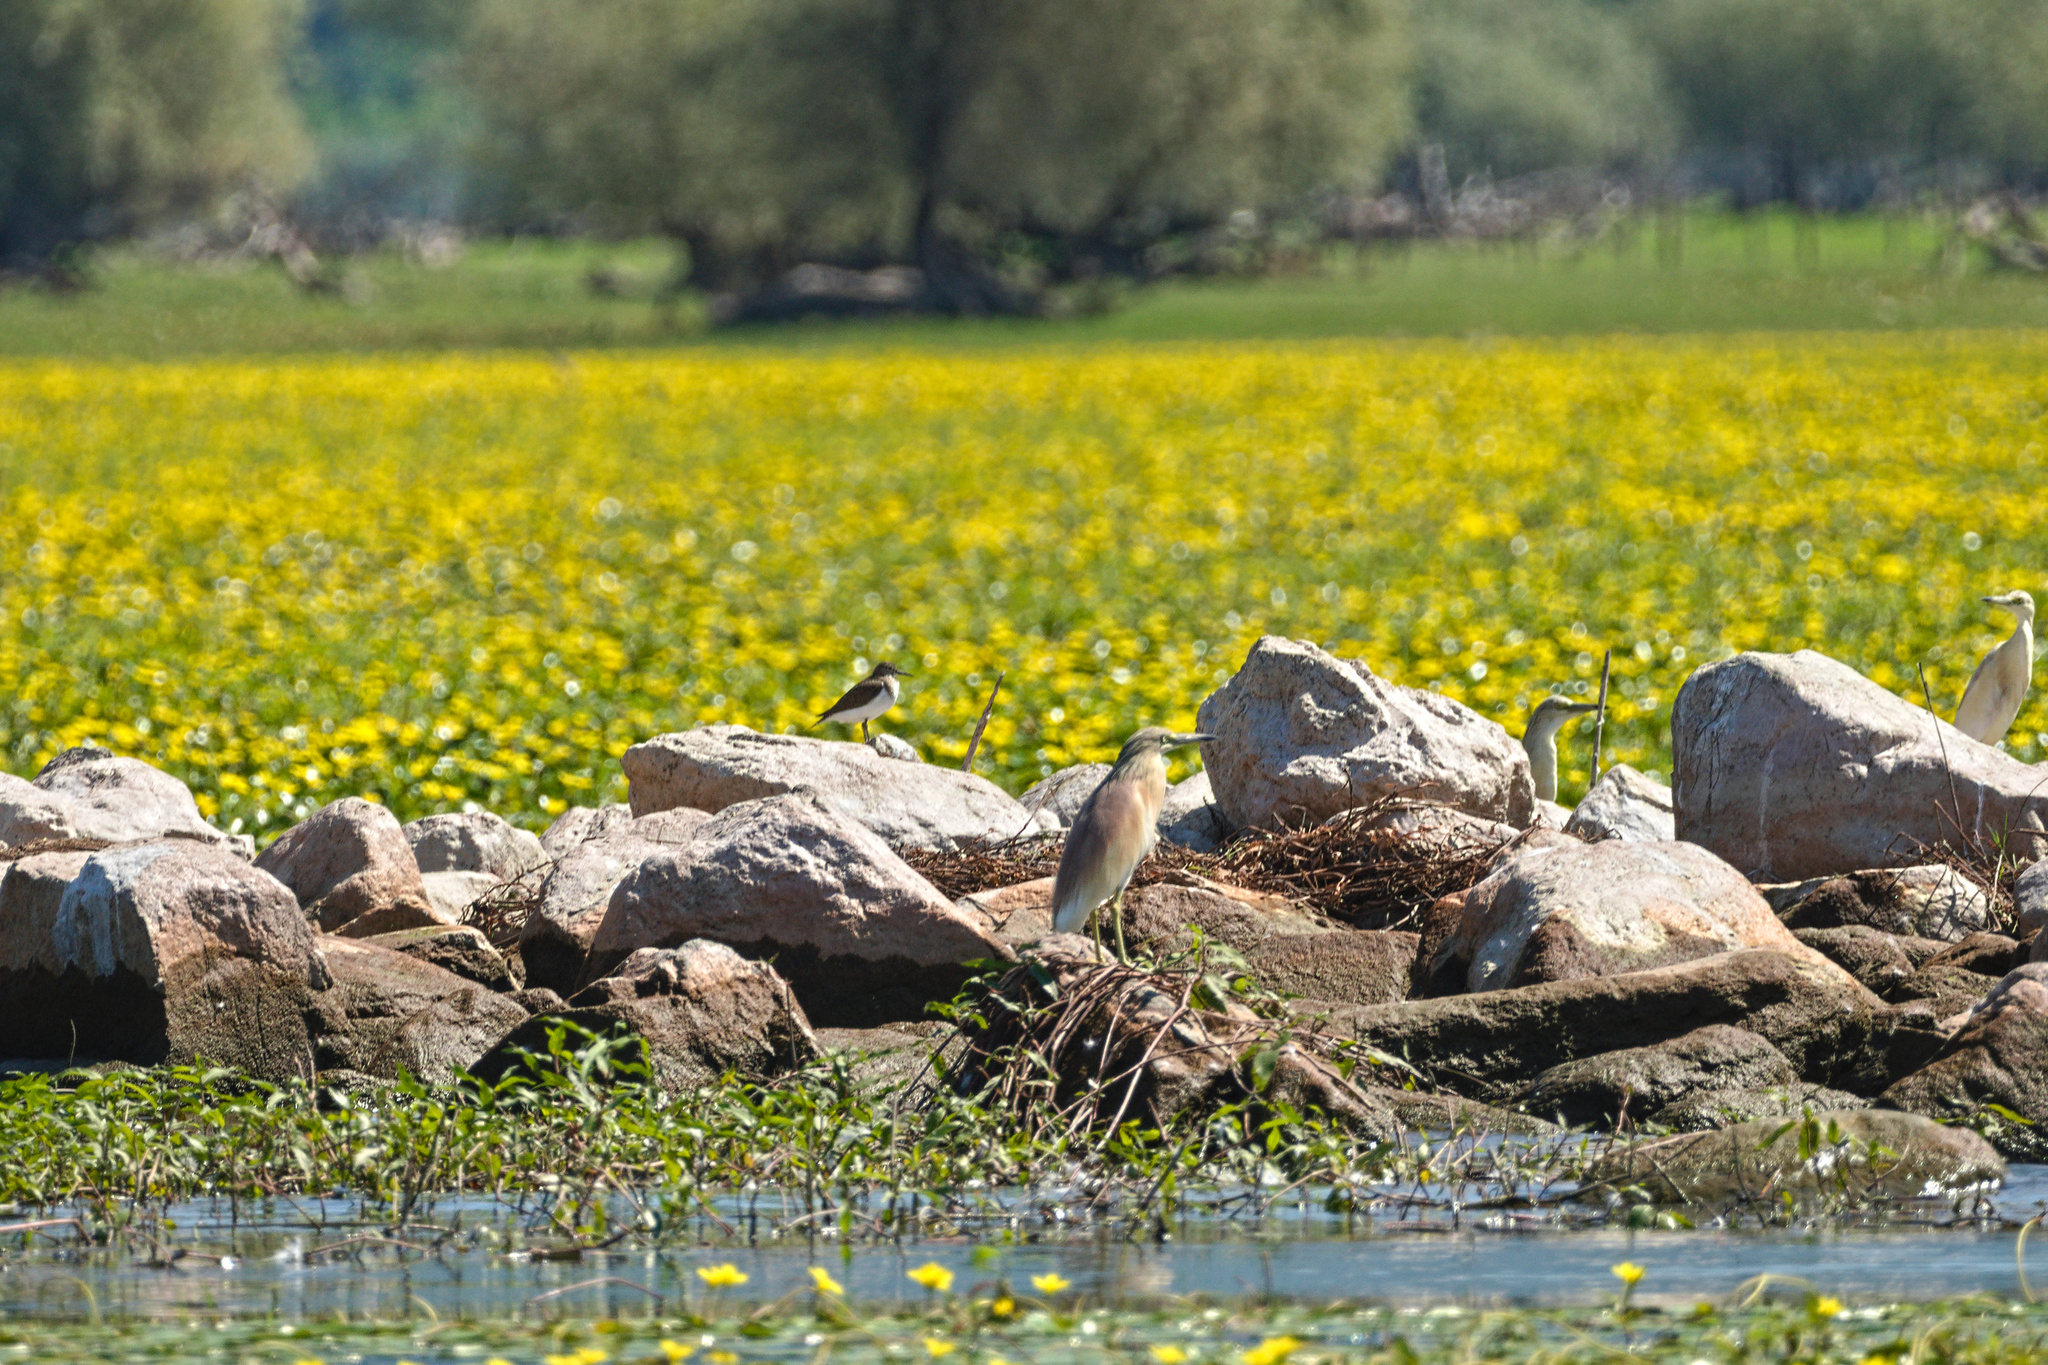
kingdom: Animalia
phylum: Chordata
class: Aves
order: Pelecaniformes
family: Ardeidae
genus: Ardeola
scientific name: Ardeola ralloides
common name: Squacco heron
